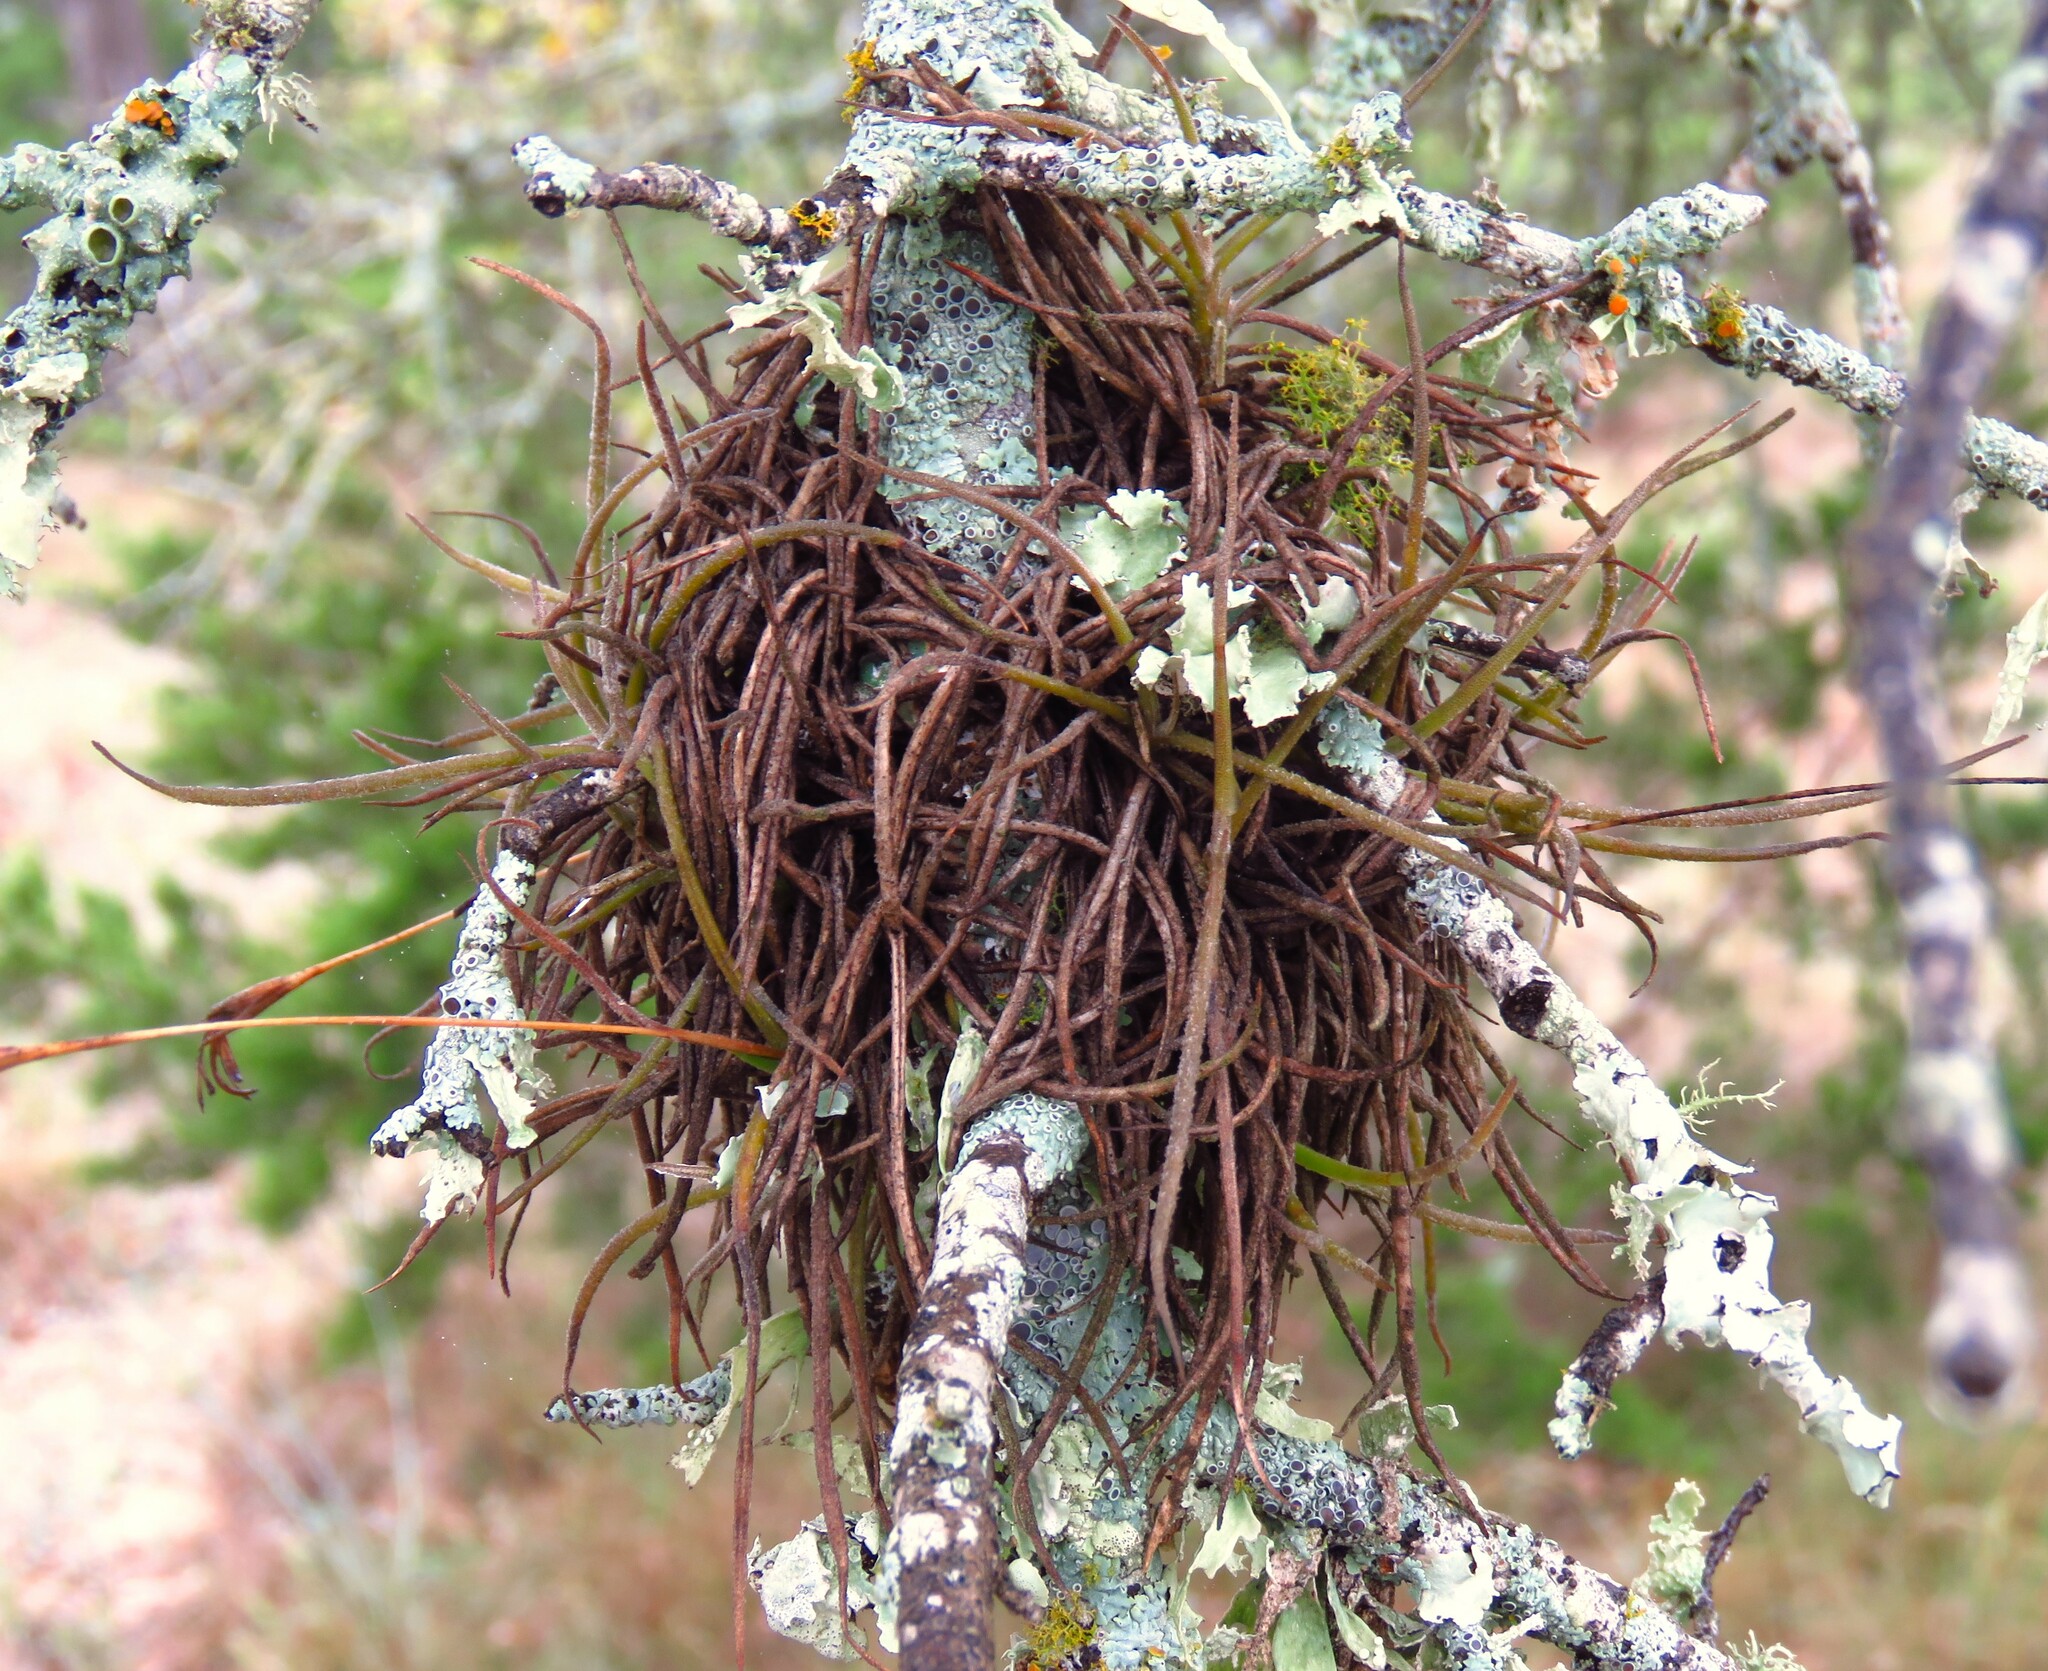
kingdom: Plantae
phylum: Tracheophyta
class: Liliopsida
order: Poales
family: Bromeliaceae
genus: Tillandsia
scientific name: Tillandsia recurvata
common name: Small ballmoss
